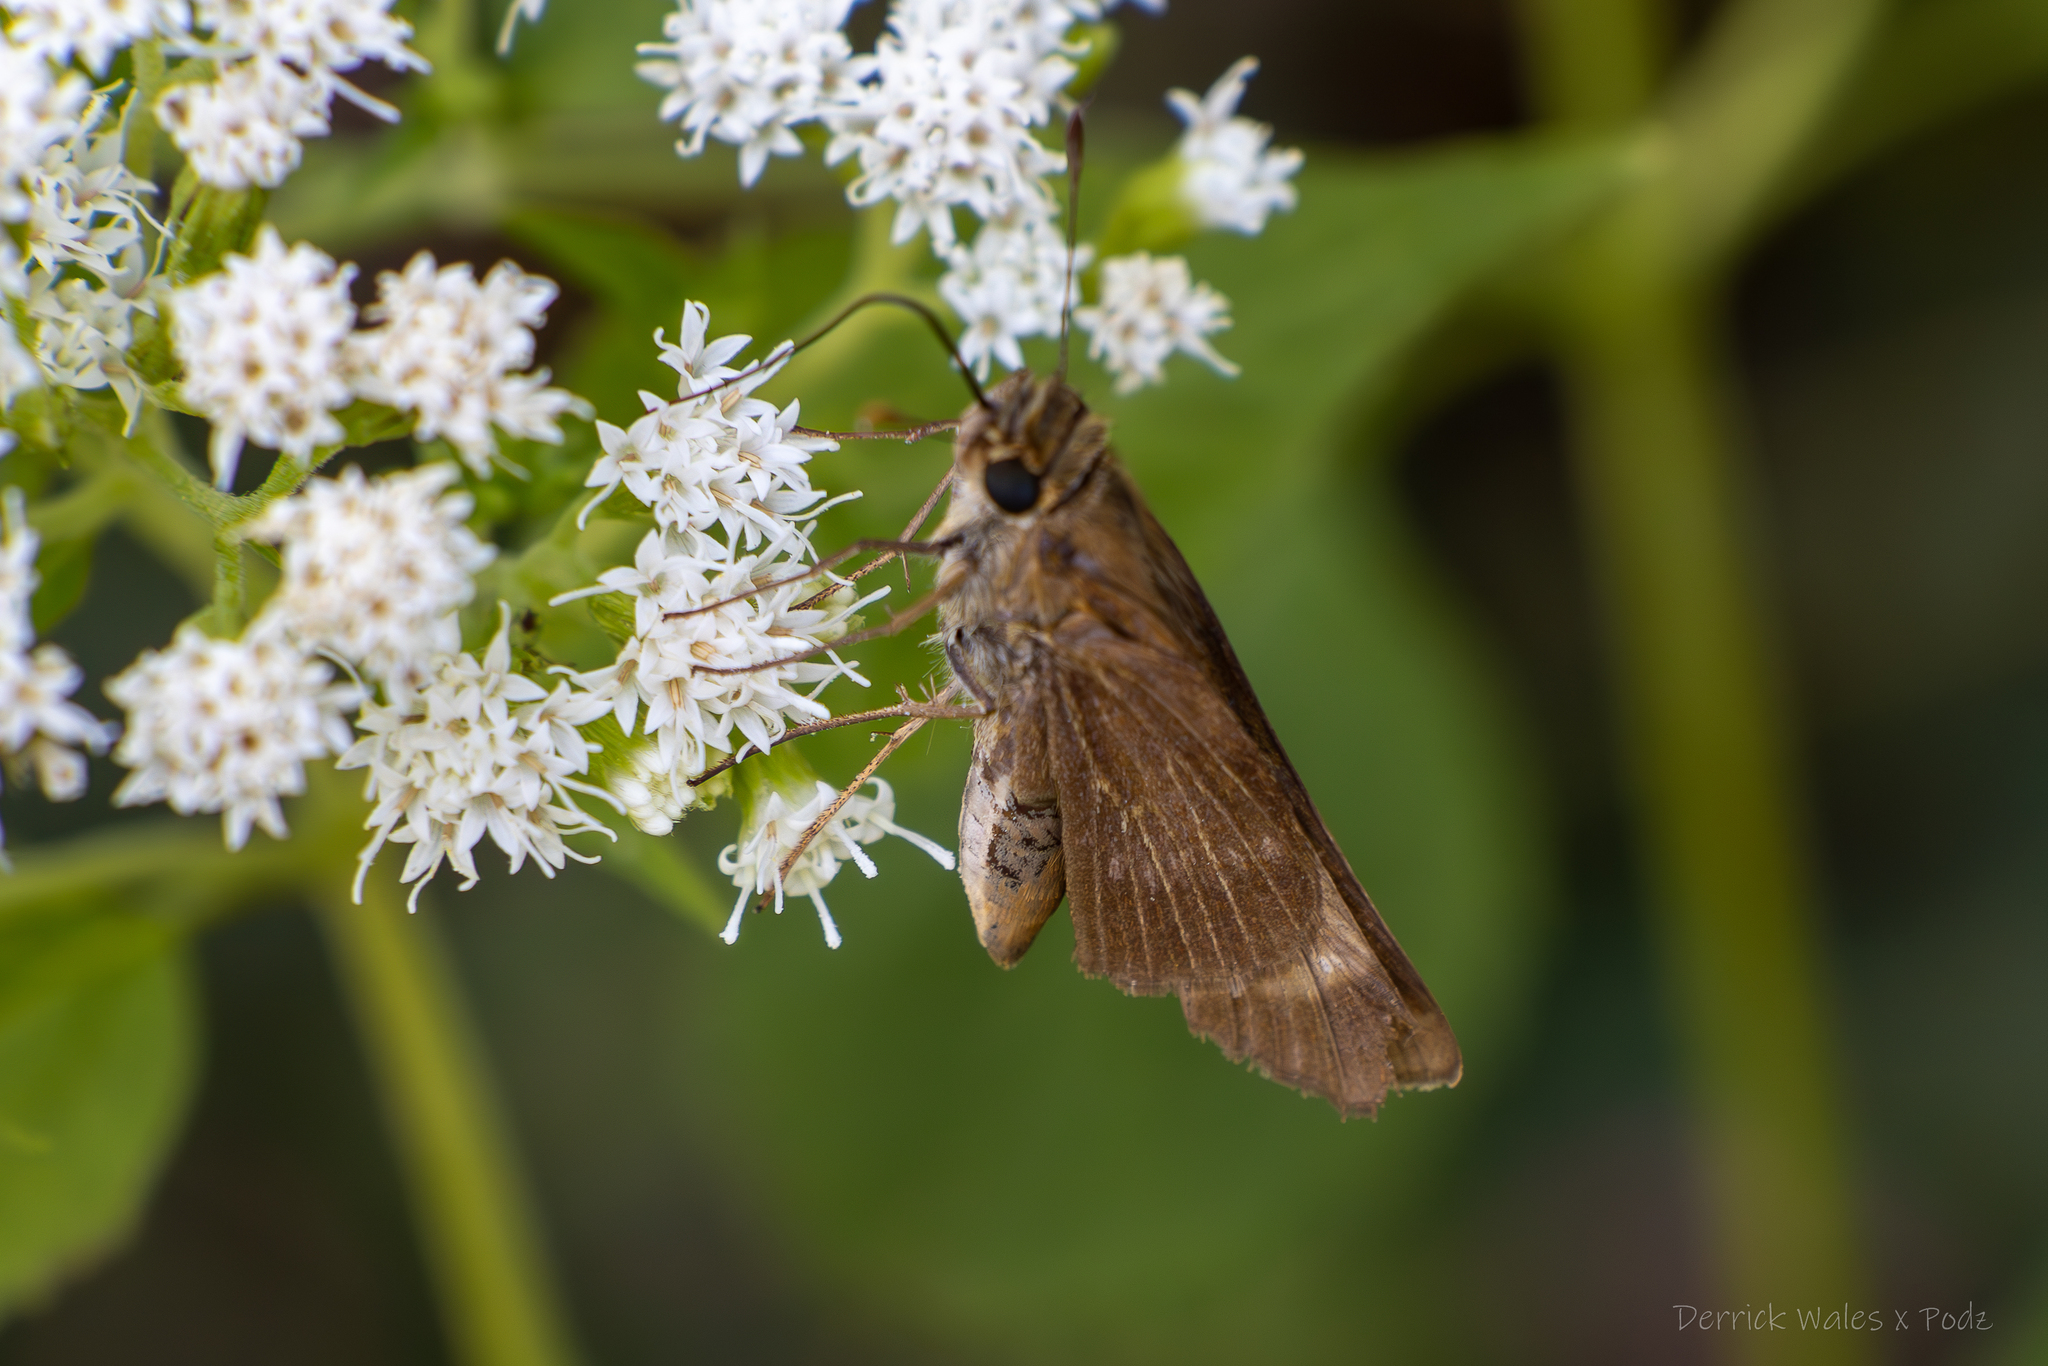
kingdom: Animalia
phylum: Arthropoda
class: Insecta
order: Lepidoptera
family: Hesperiidae
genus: Panoquina
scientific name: Panoquina ocola
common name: Ocola skipper
